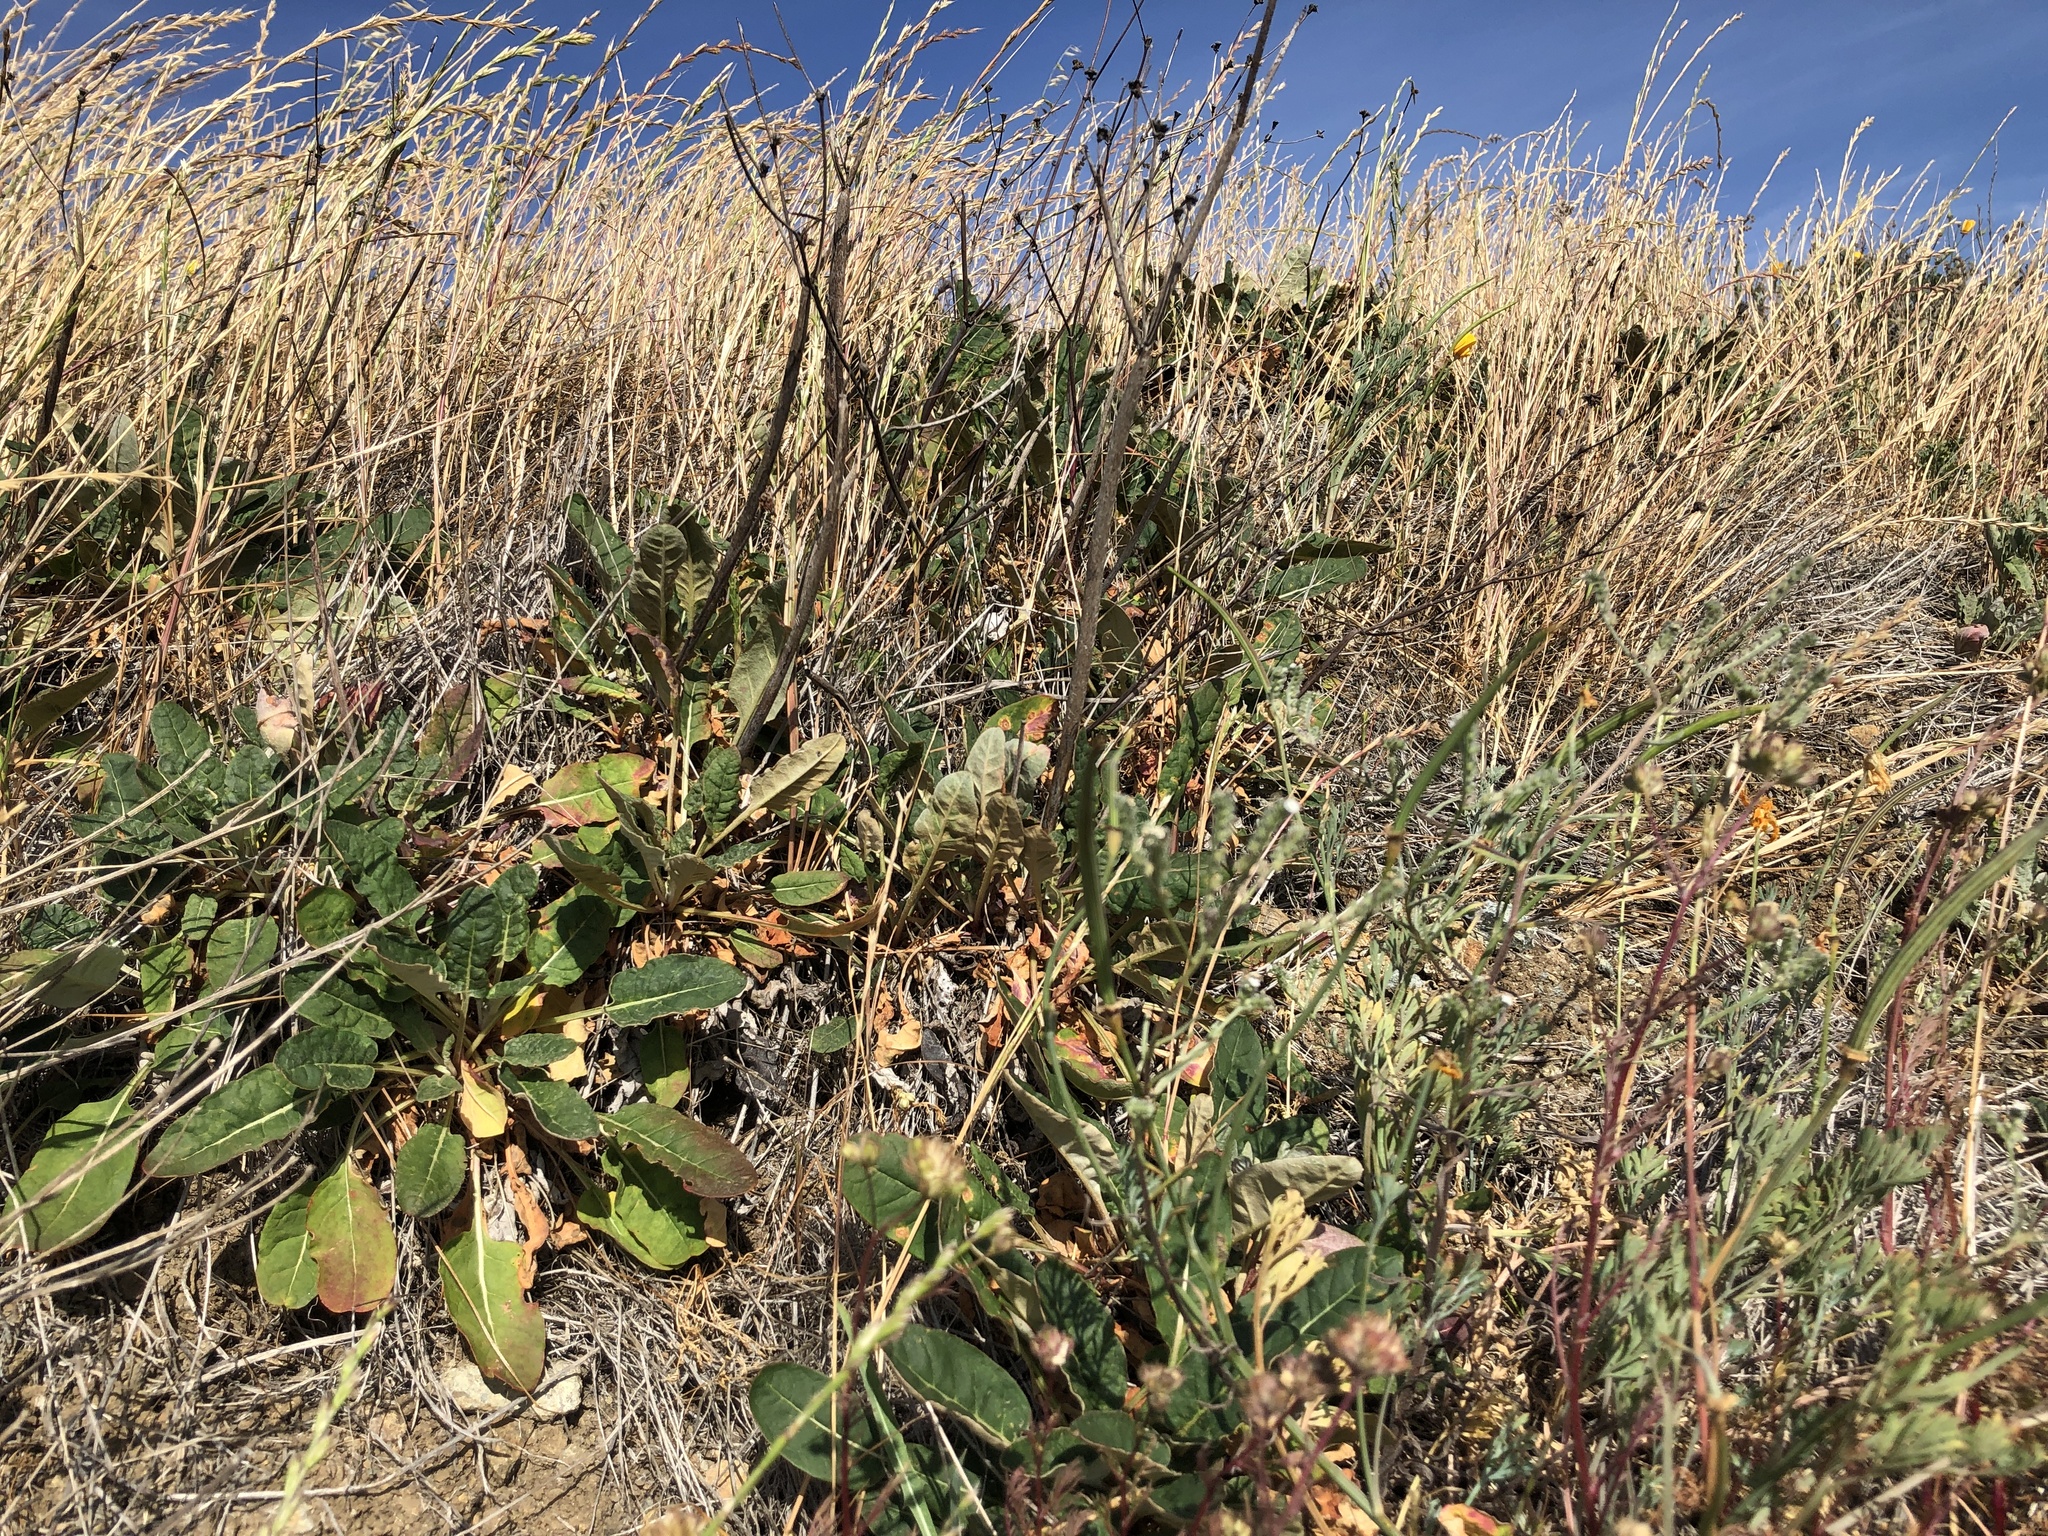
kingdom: Plantae
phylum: Tracheophyta
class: Magnoliopsida
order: Caryophyllales
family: Polygonaceae
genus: Eriogonum
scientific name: Eriogonum nudum
